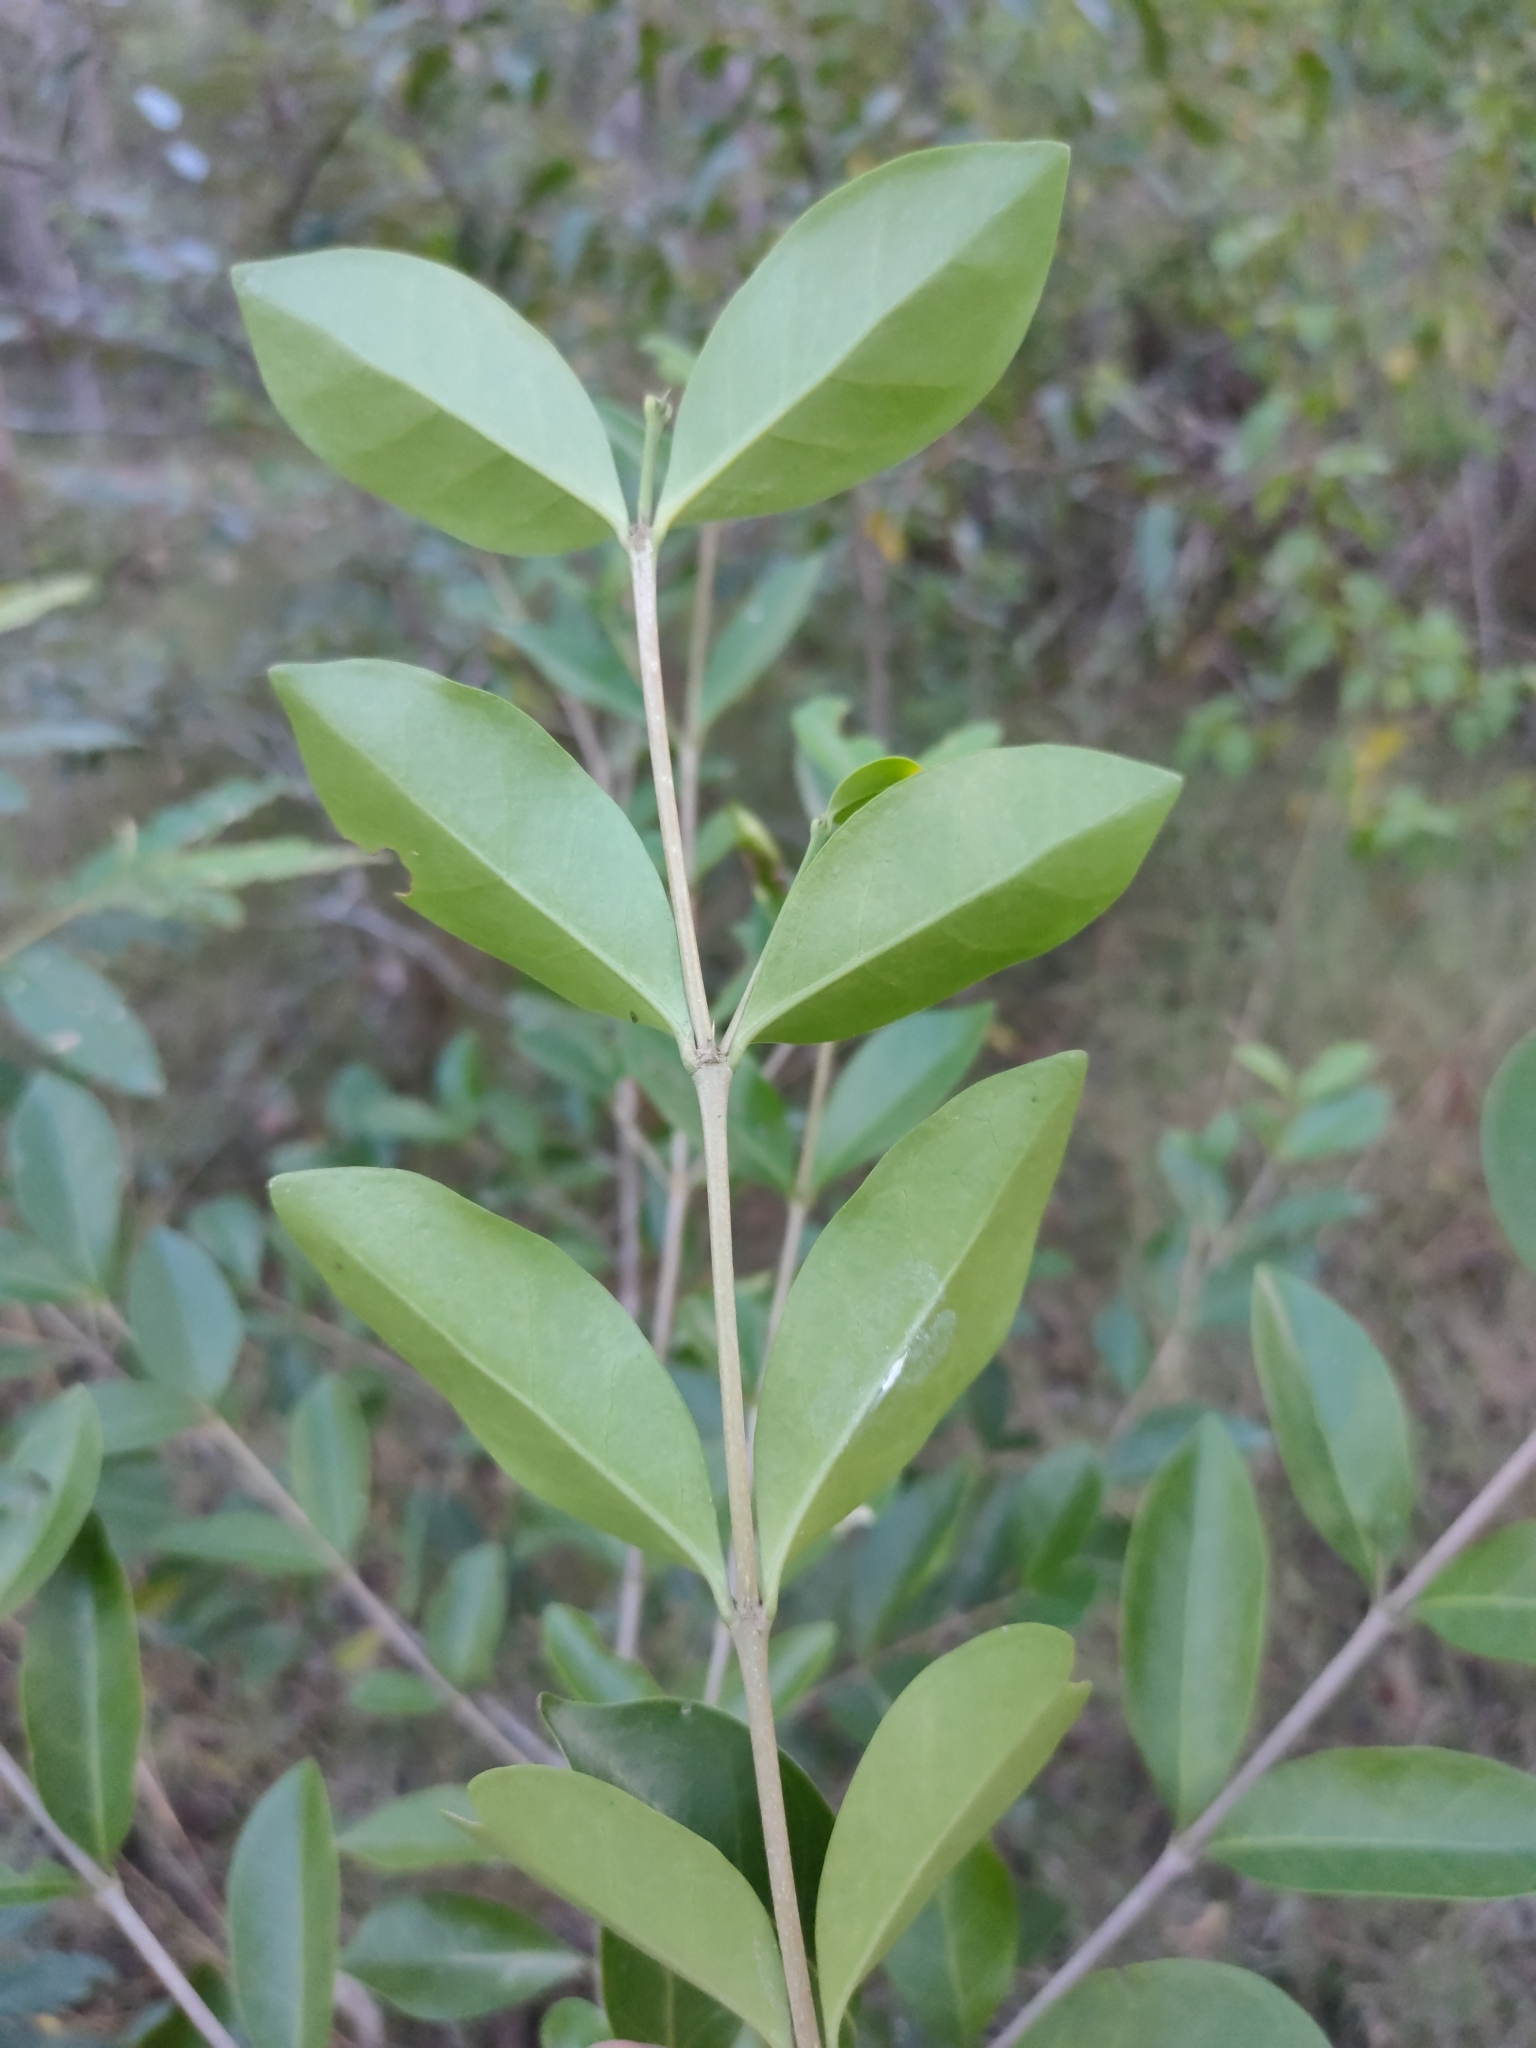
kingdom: Plantae
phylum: Tracheophyta
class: Magnoliopsida
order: Gentianales
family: Rubiaceae
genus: Cyclophyllum
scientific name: Cyclophyllum coprosmoides
